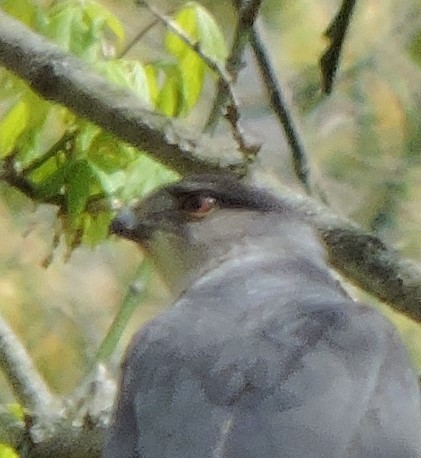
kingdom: Animalia
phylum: Chordata
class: Aves
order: Accipitriformes
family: Accipitridae
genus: Accipiter
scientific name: Accipiter cooperii
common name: Cooper's hawk
